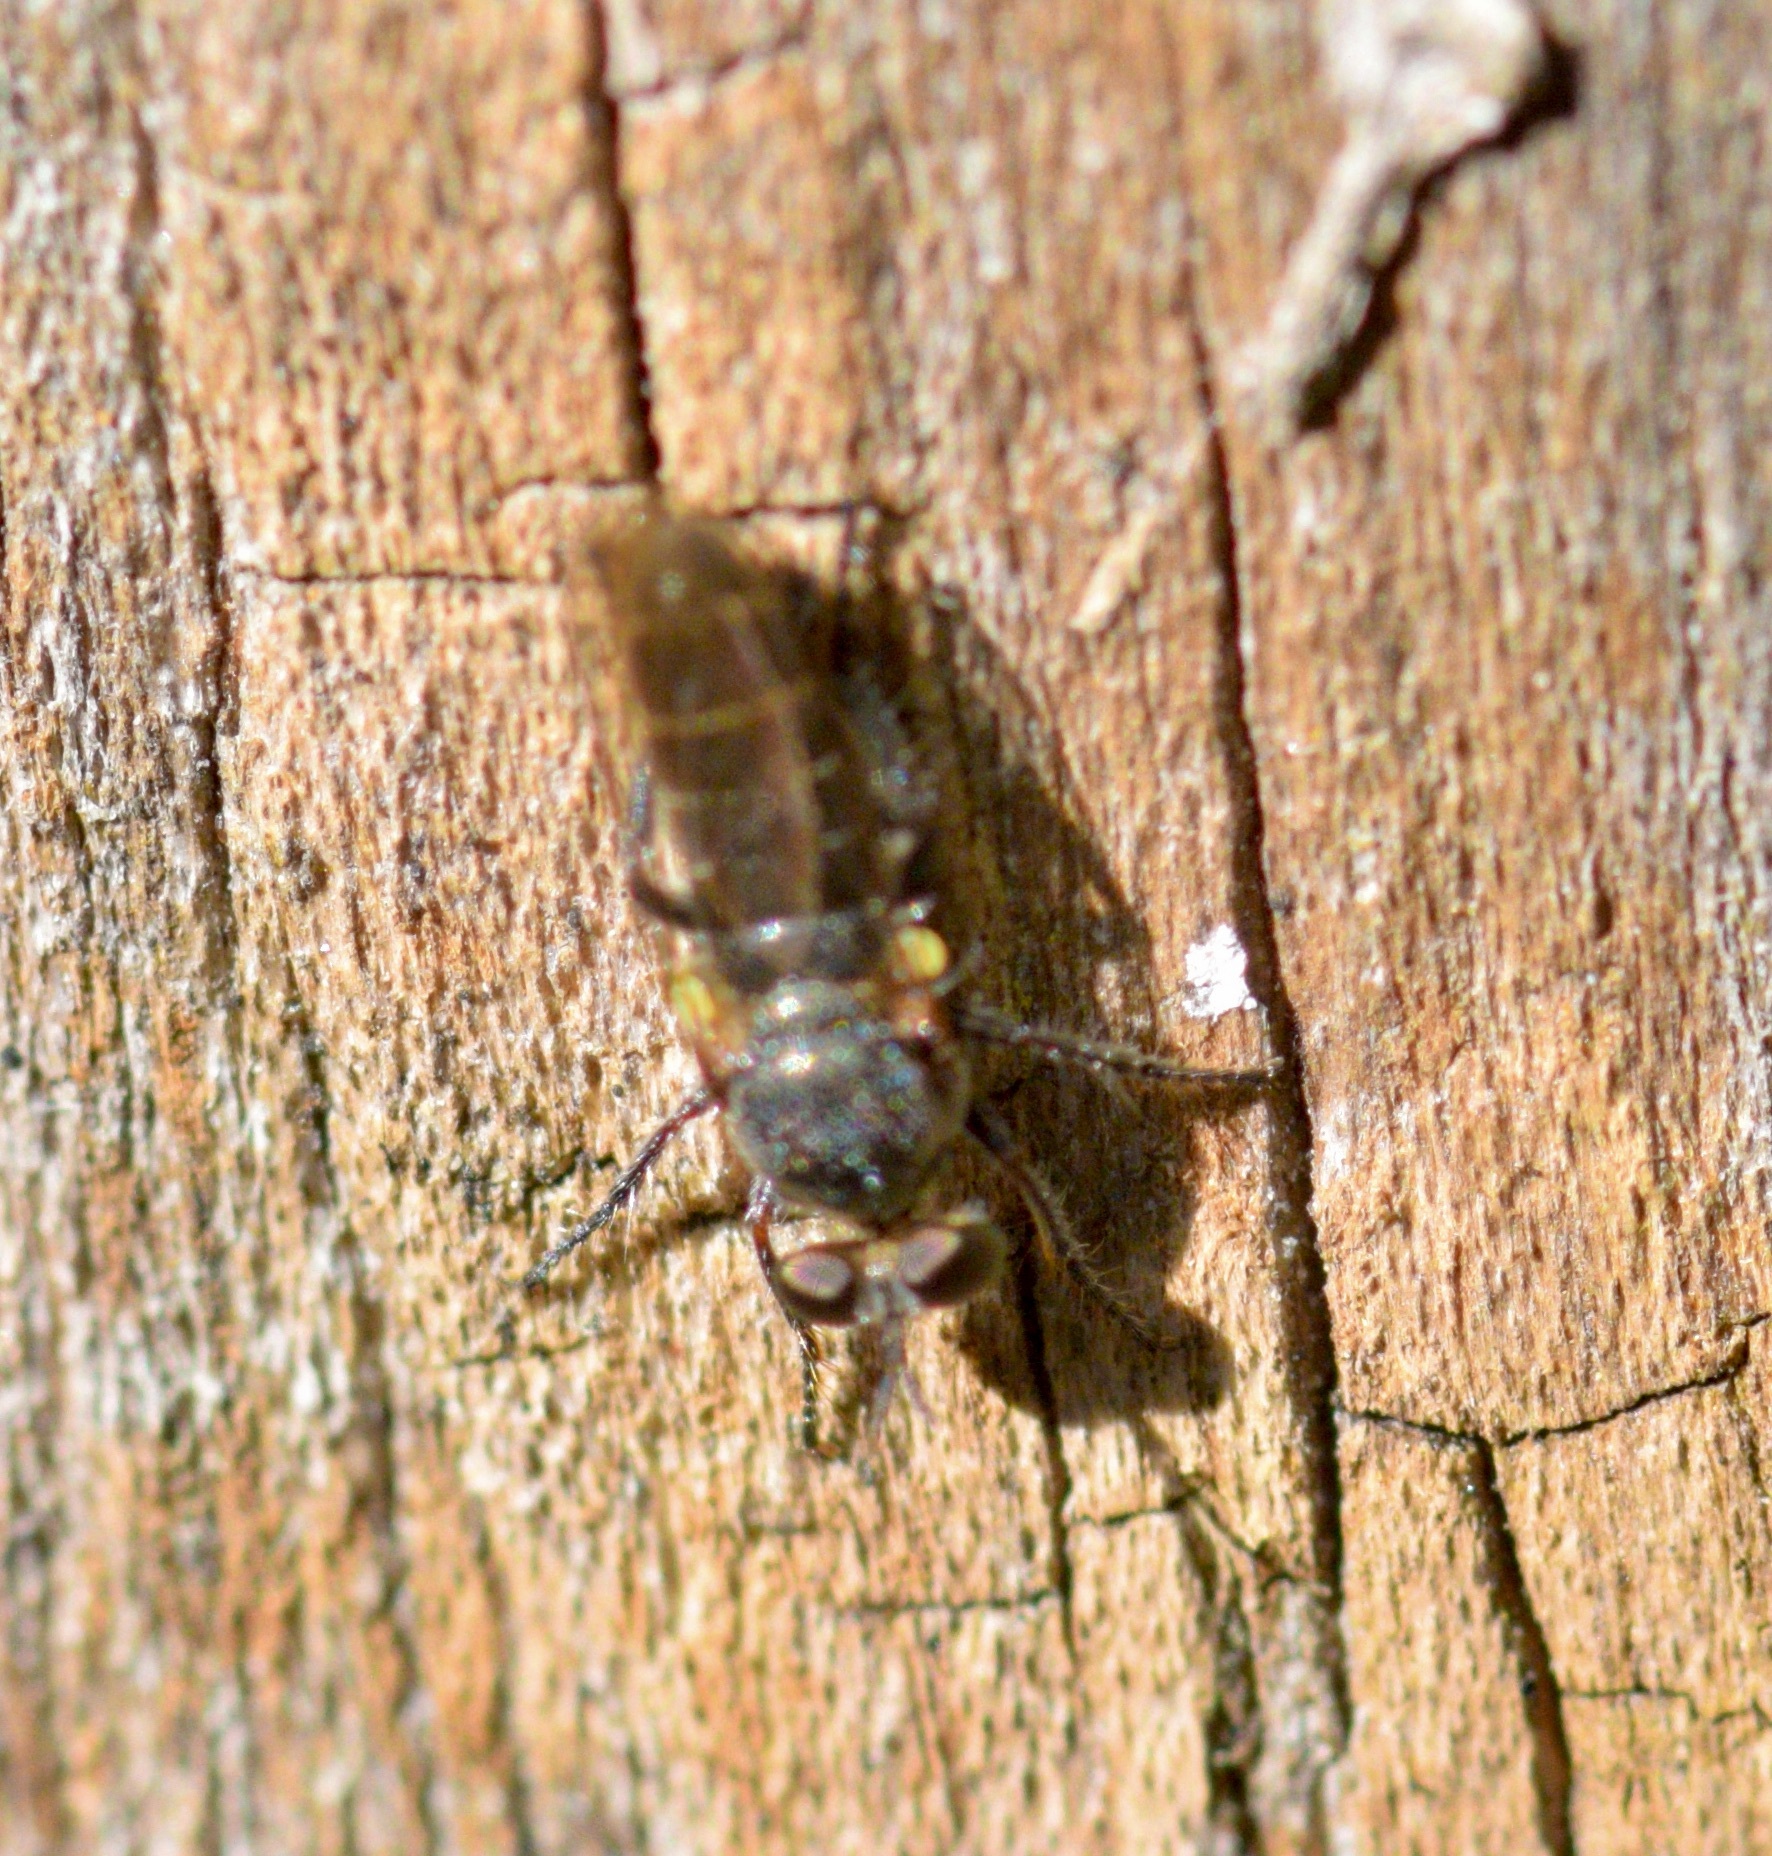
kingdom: Animalia
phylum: Arthropoda
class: Insecta
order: Diptera
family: Asilidae
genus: Atomosia
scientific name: Atomosia puella
